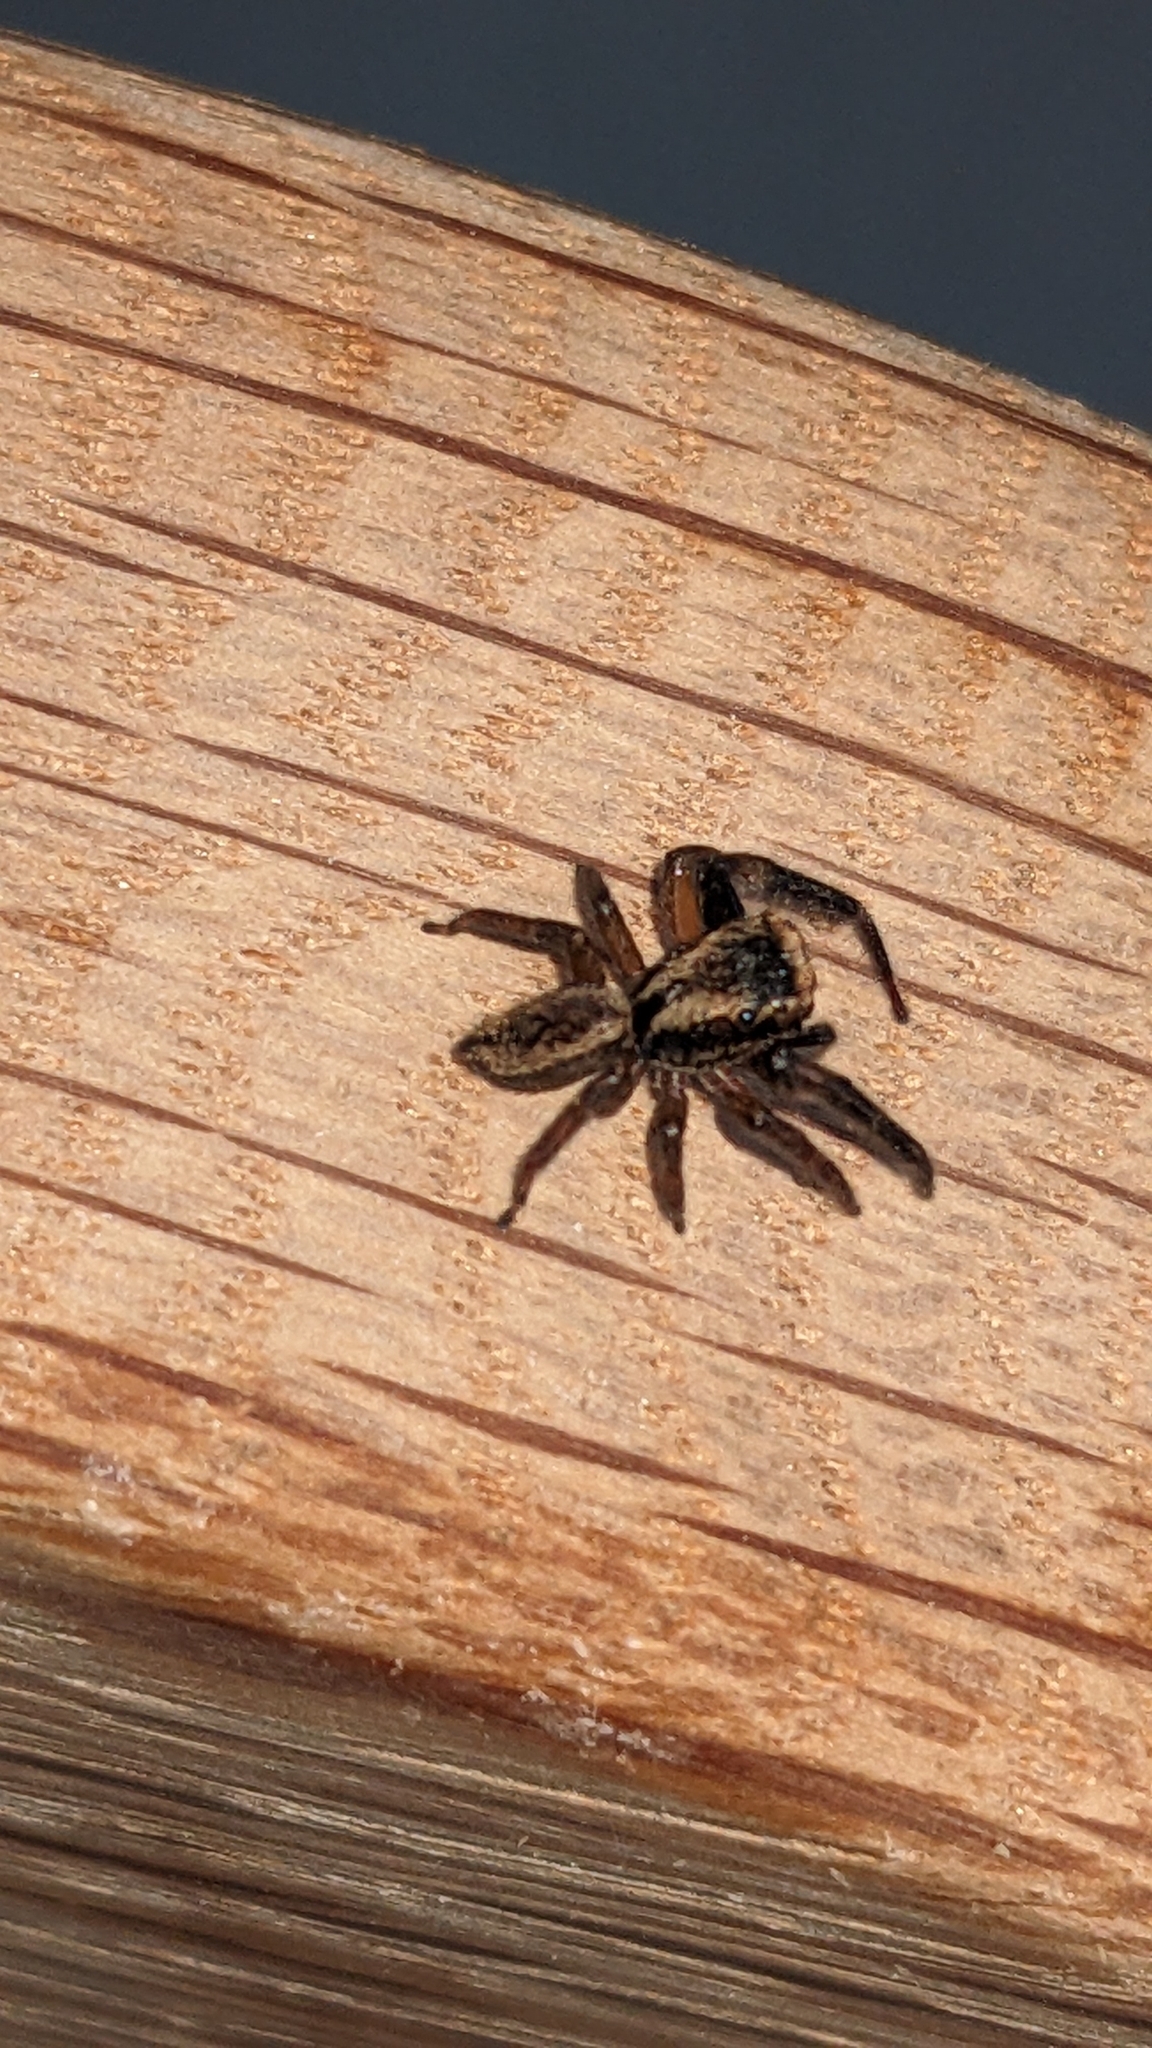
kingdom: Animalia
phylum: Arthropoda
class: Arachnida
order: Araneae
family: Salticidae
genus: Trite
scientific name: Trite auricoma
